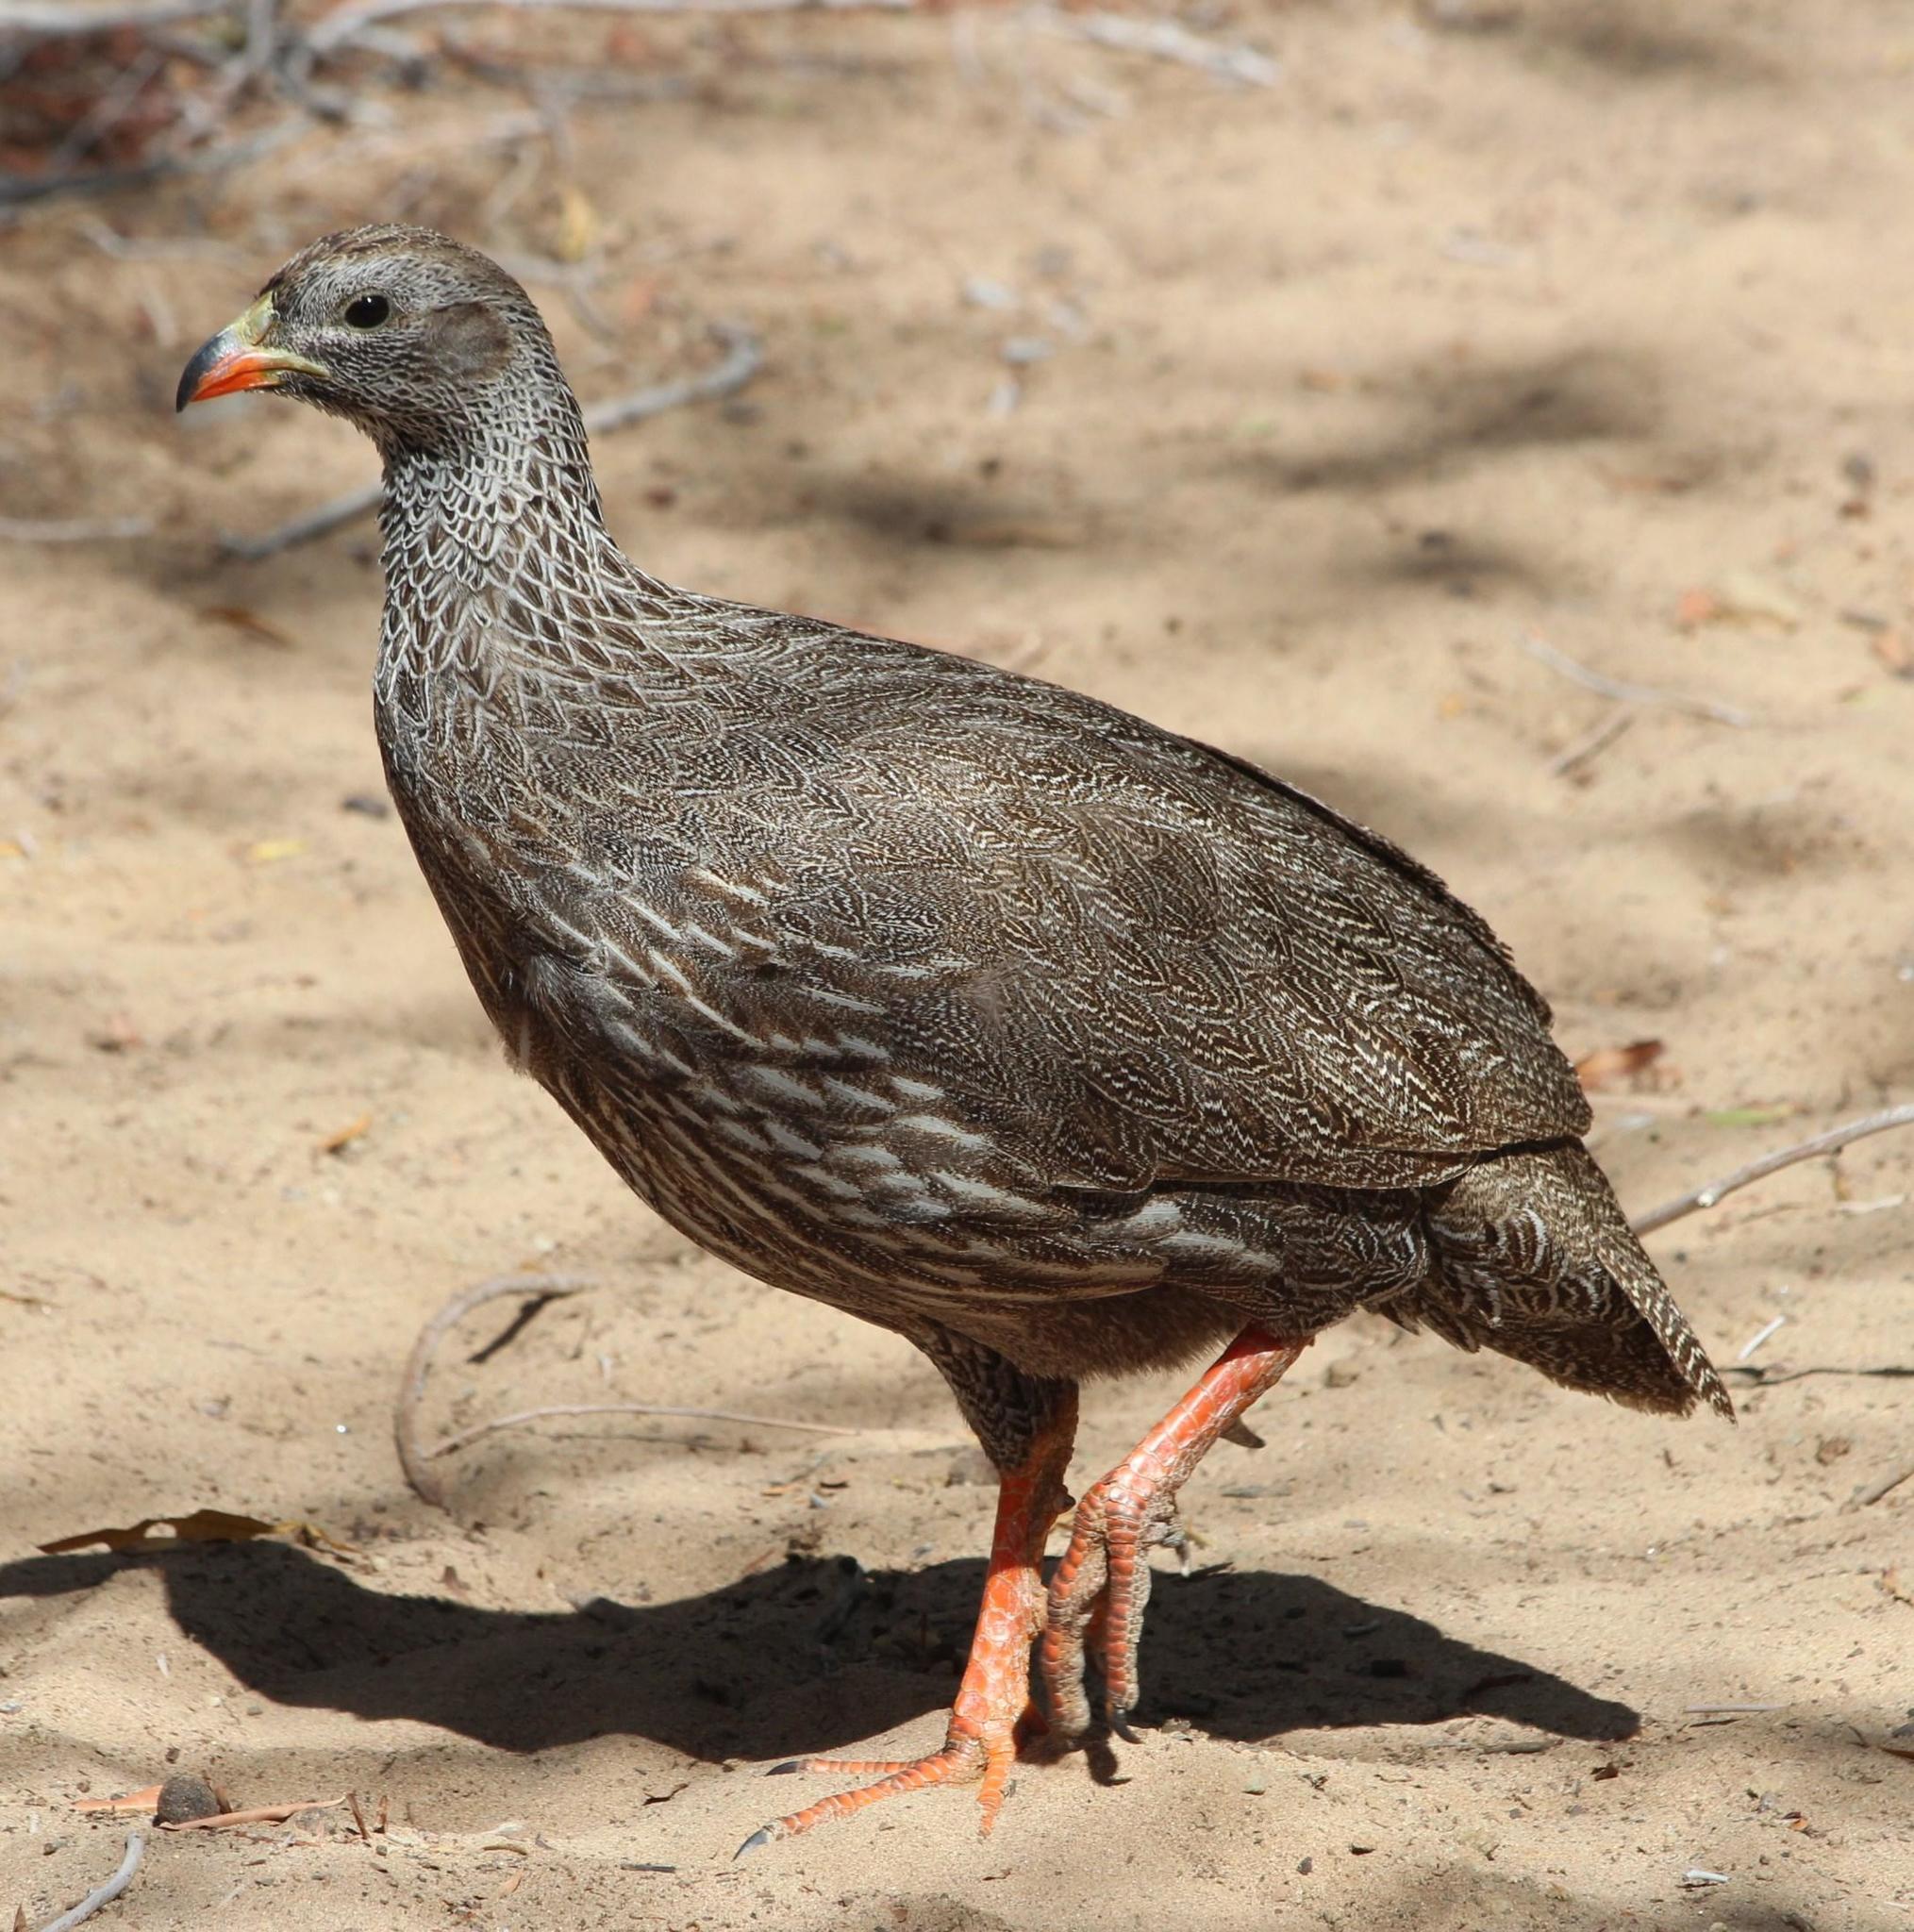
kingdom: Animalia
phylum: Chordata
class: Aves
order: Galliformes
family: Phasianidae
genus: Pternistis
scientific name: Pternistis capensis
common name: Cape spurfowl
